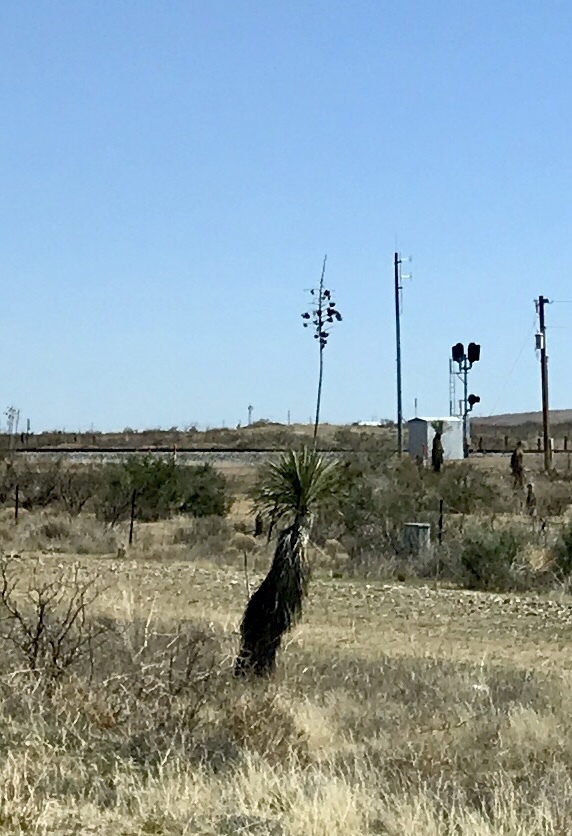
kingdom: Plantae
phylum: Tracheophyta
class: Liliopsida
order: Asparagales
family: Asparagaceae
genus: Yucca
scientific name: Yucca elata
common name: Palmella
